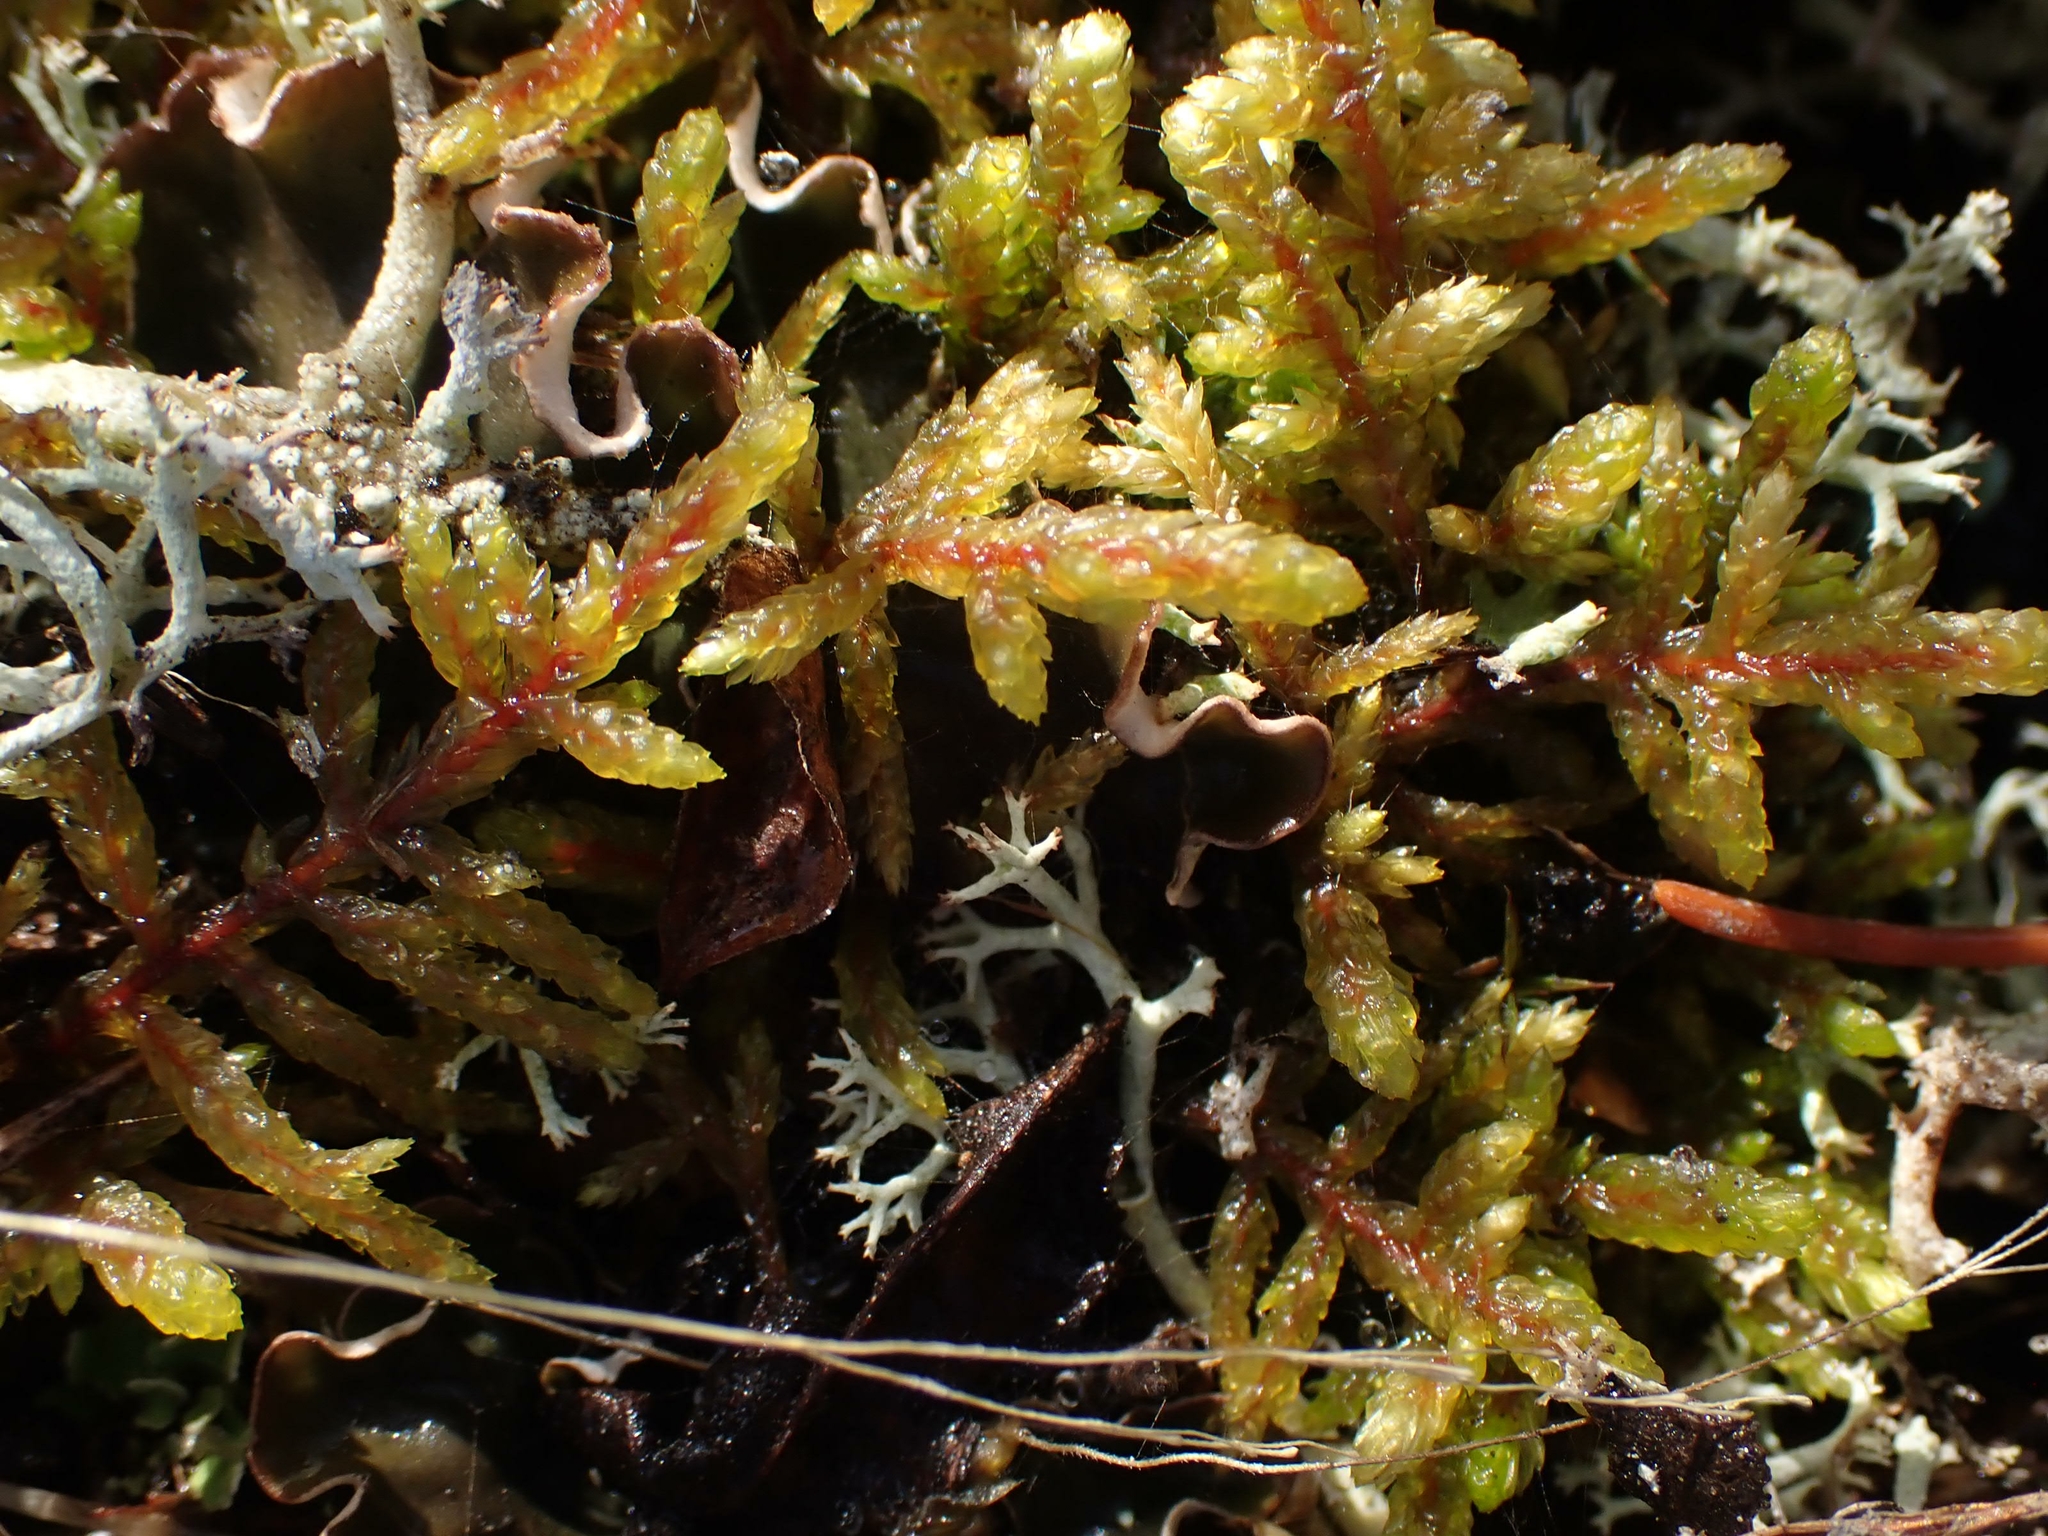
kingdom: Plantae
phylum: Bryophyta
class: Bryopsida
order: Hypnales
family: Hylocomiaceae
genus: Pleurozium
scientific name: Pleurozium schreberi
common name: Red-stemmed feather moss
